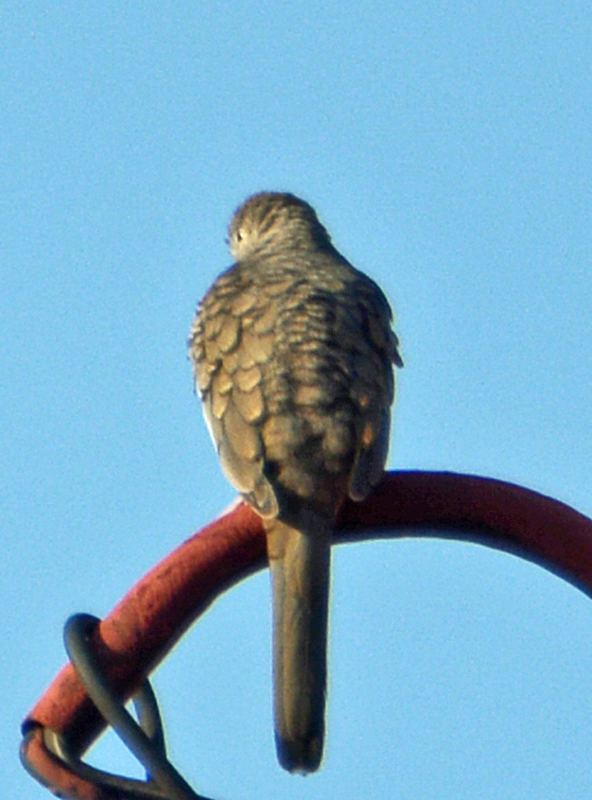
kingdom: Animalia
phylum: Chordata
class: Aves
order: Columbiformes
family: Columbidae
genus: Columbina
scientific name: Columbina inca
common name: Inca dove
